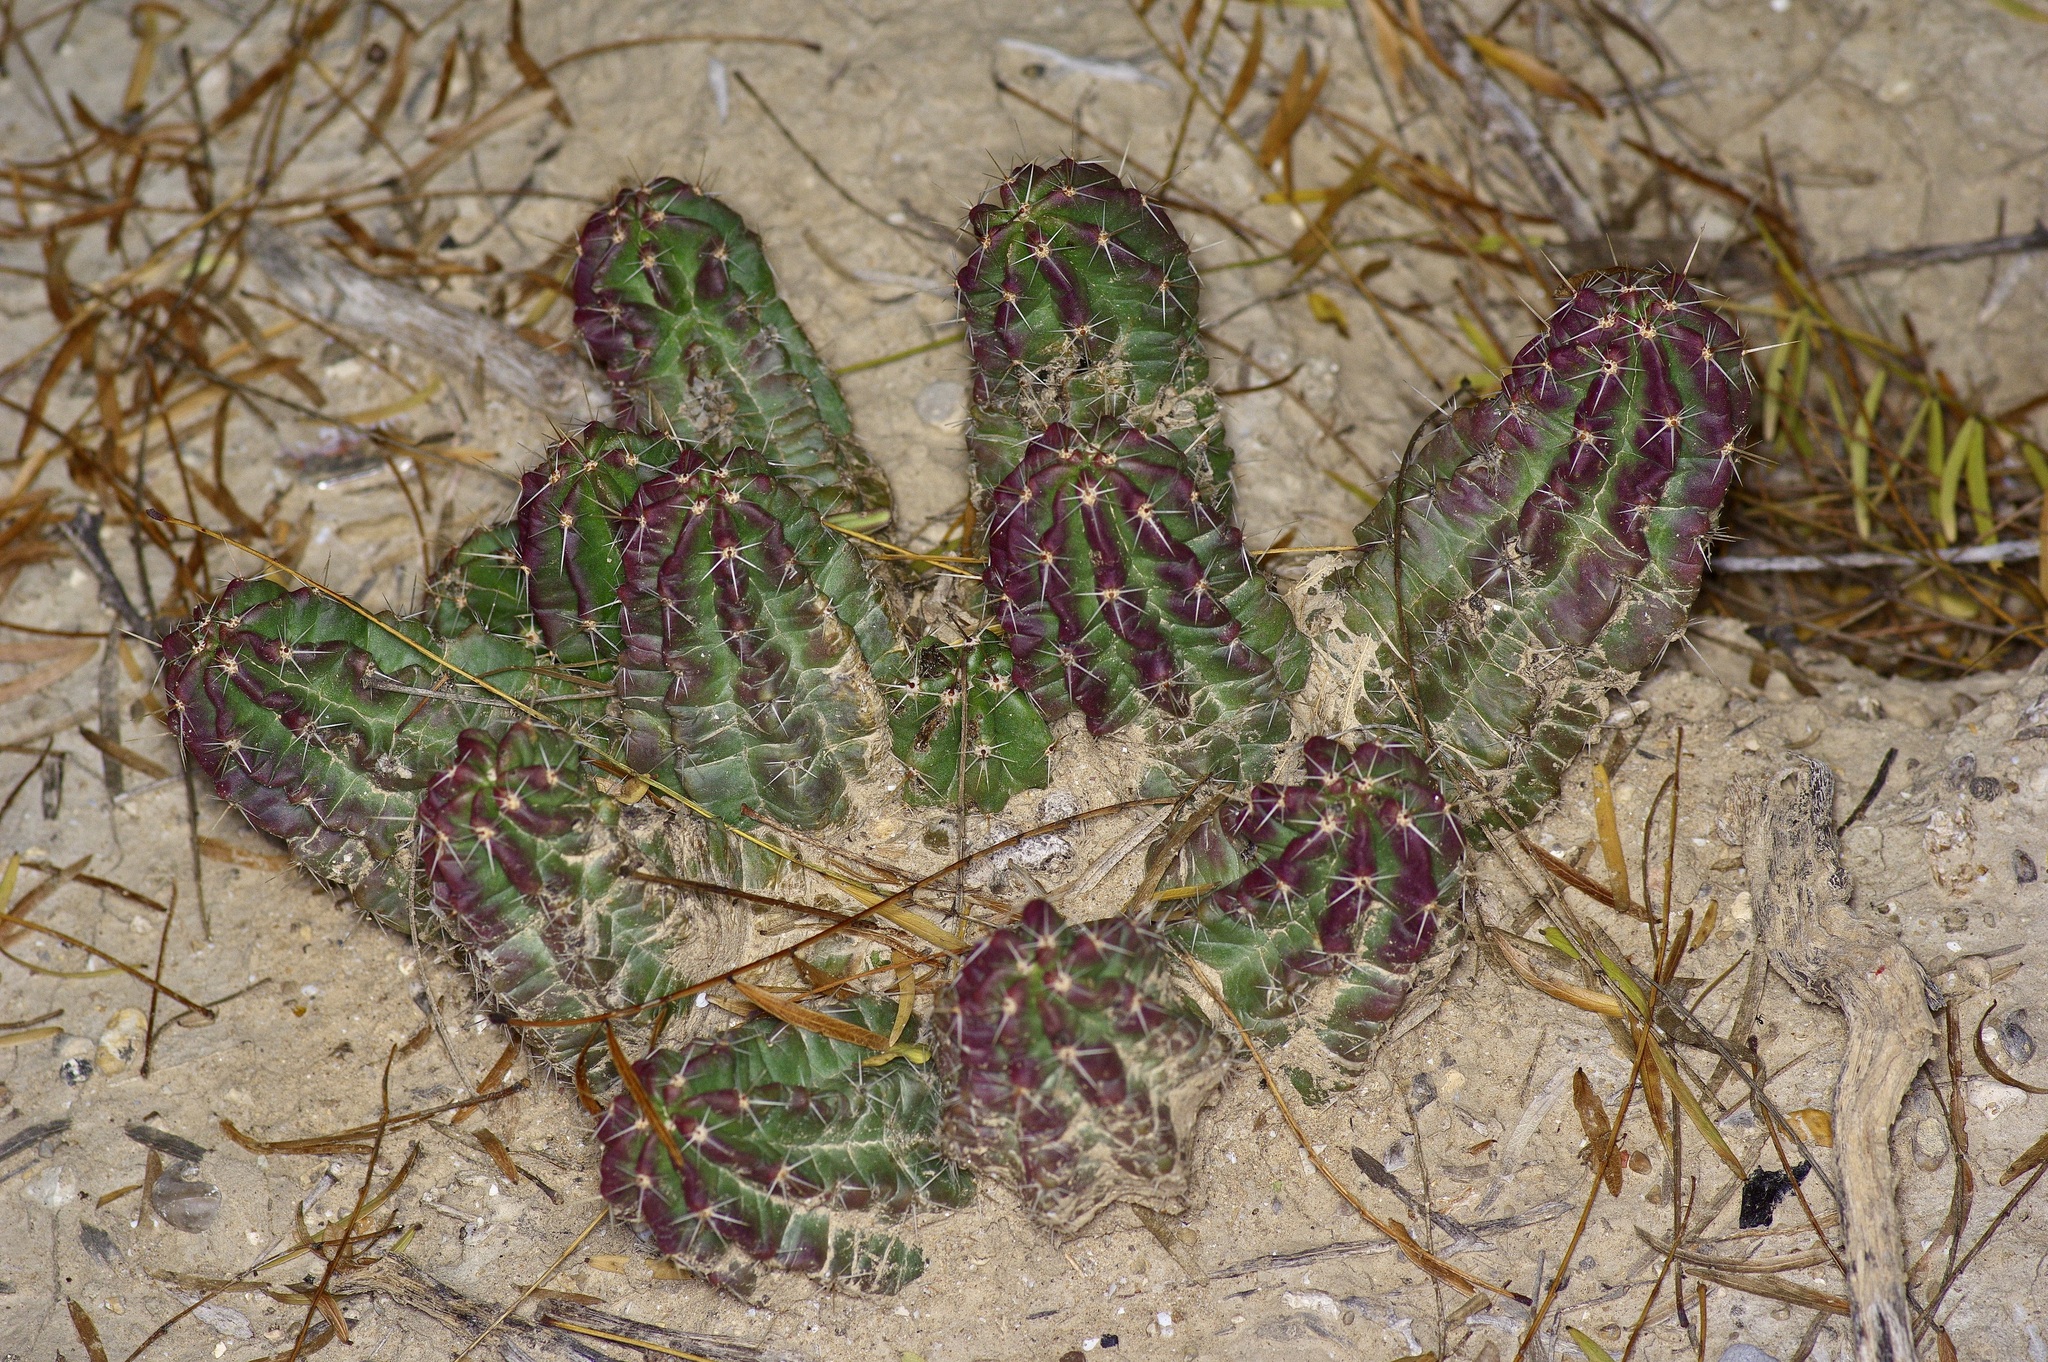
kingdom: Plantae
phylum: Tracheophyta
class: Magnoliopsida
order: Caryophyllales
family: Cactaceae
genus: Echinocereus
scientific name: Echinocereus enneacanthus
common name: Pitaya
